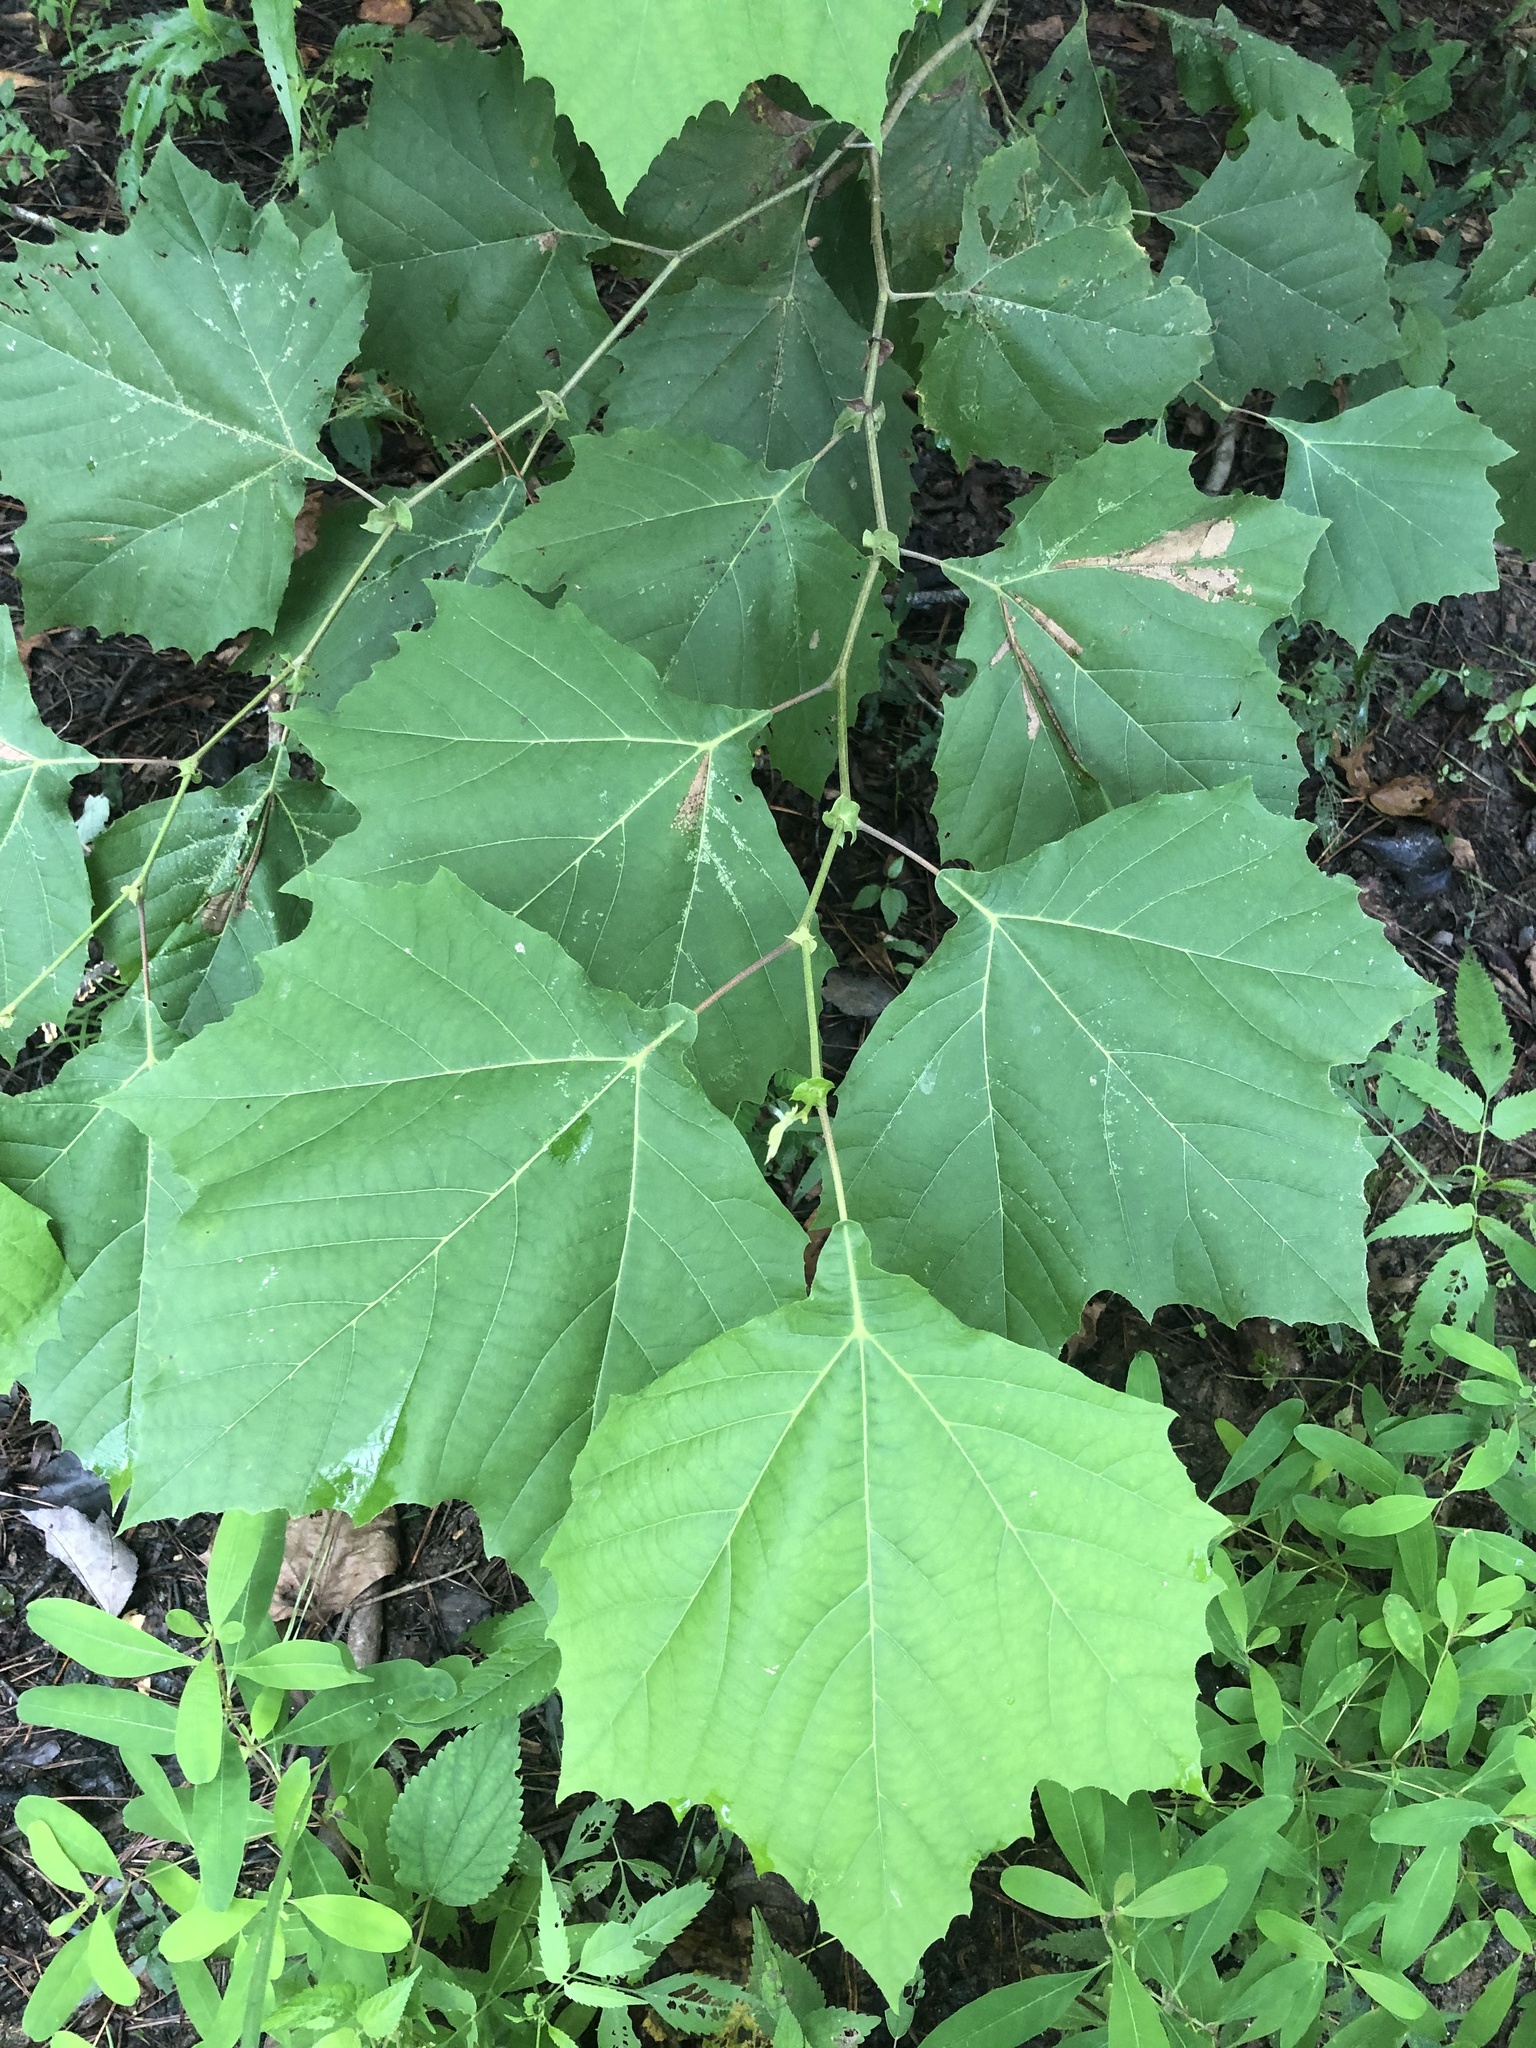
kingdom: Plantae
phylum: Tracheophyta
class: Magnoliopsida
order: Proteales
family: Platanaceae
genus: Platanus
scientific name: Platanus occidentalis
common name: American sycamore
